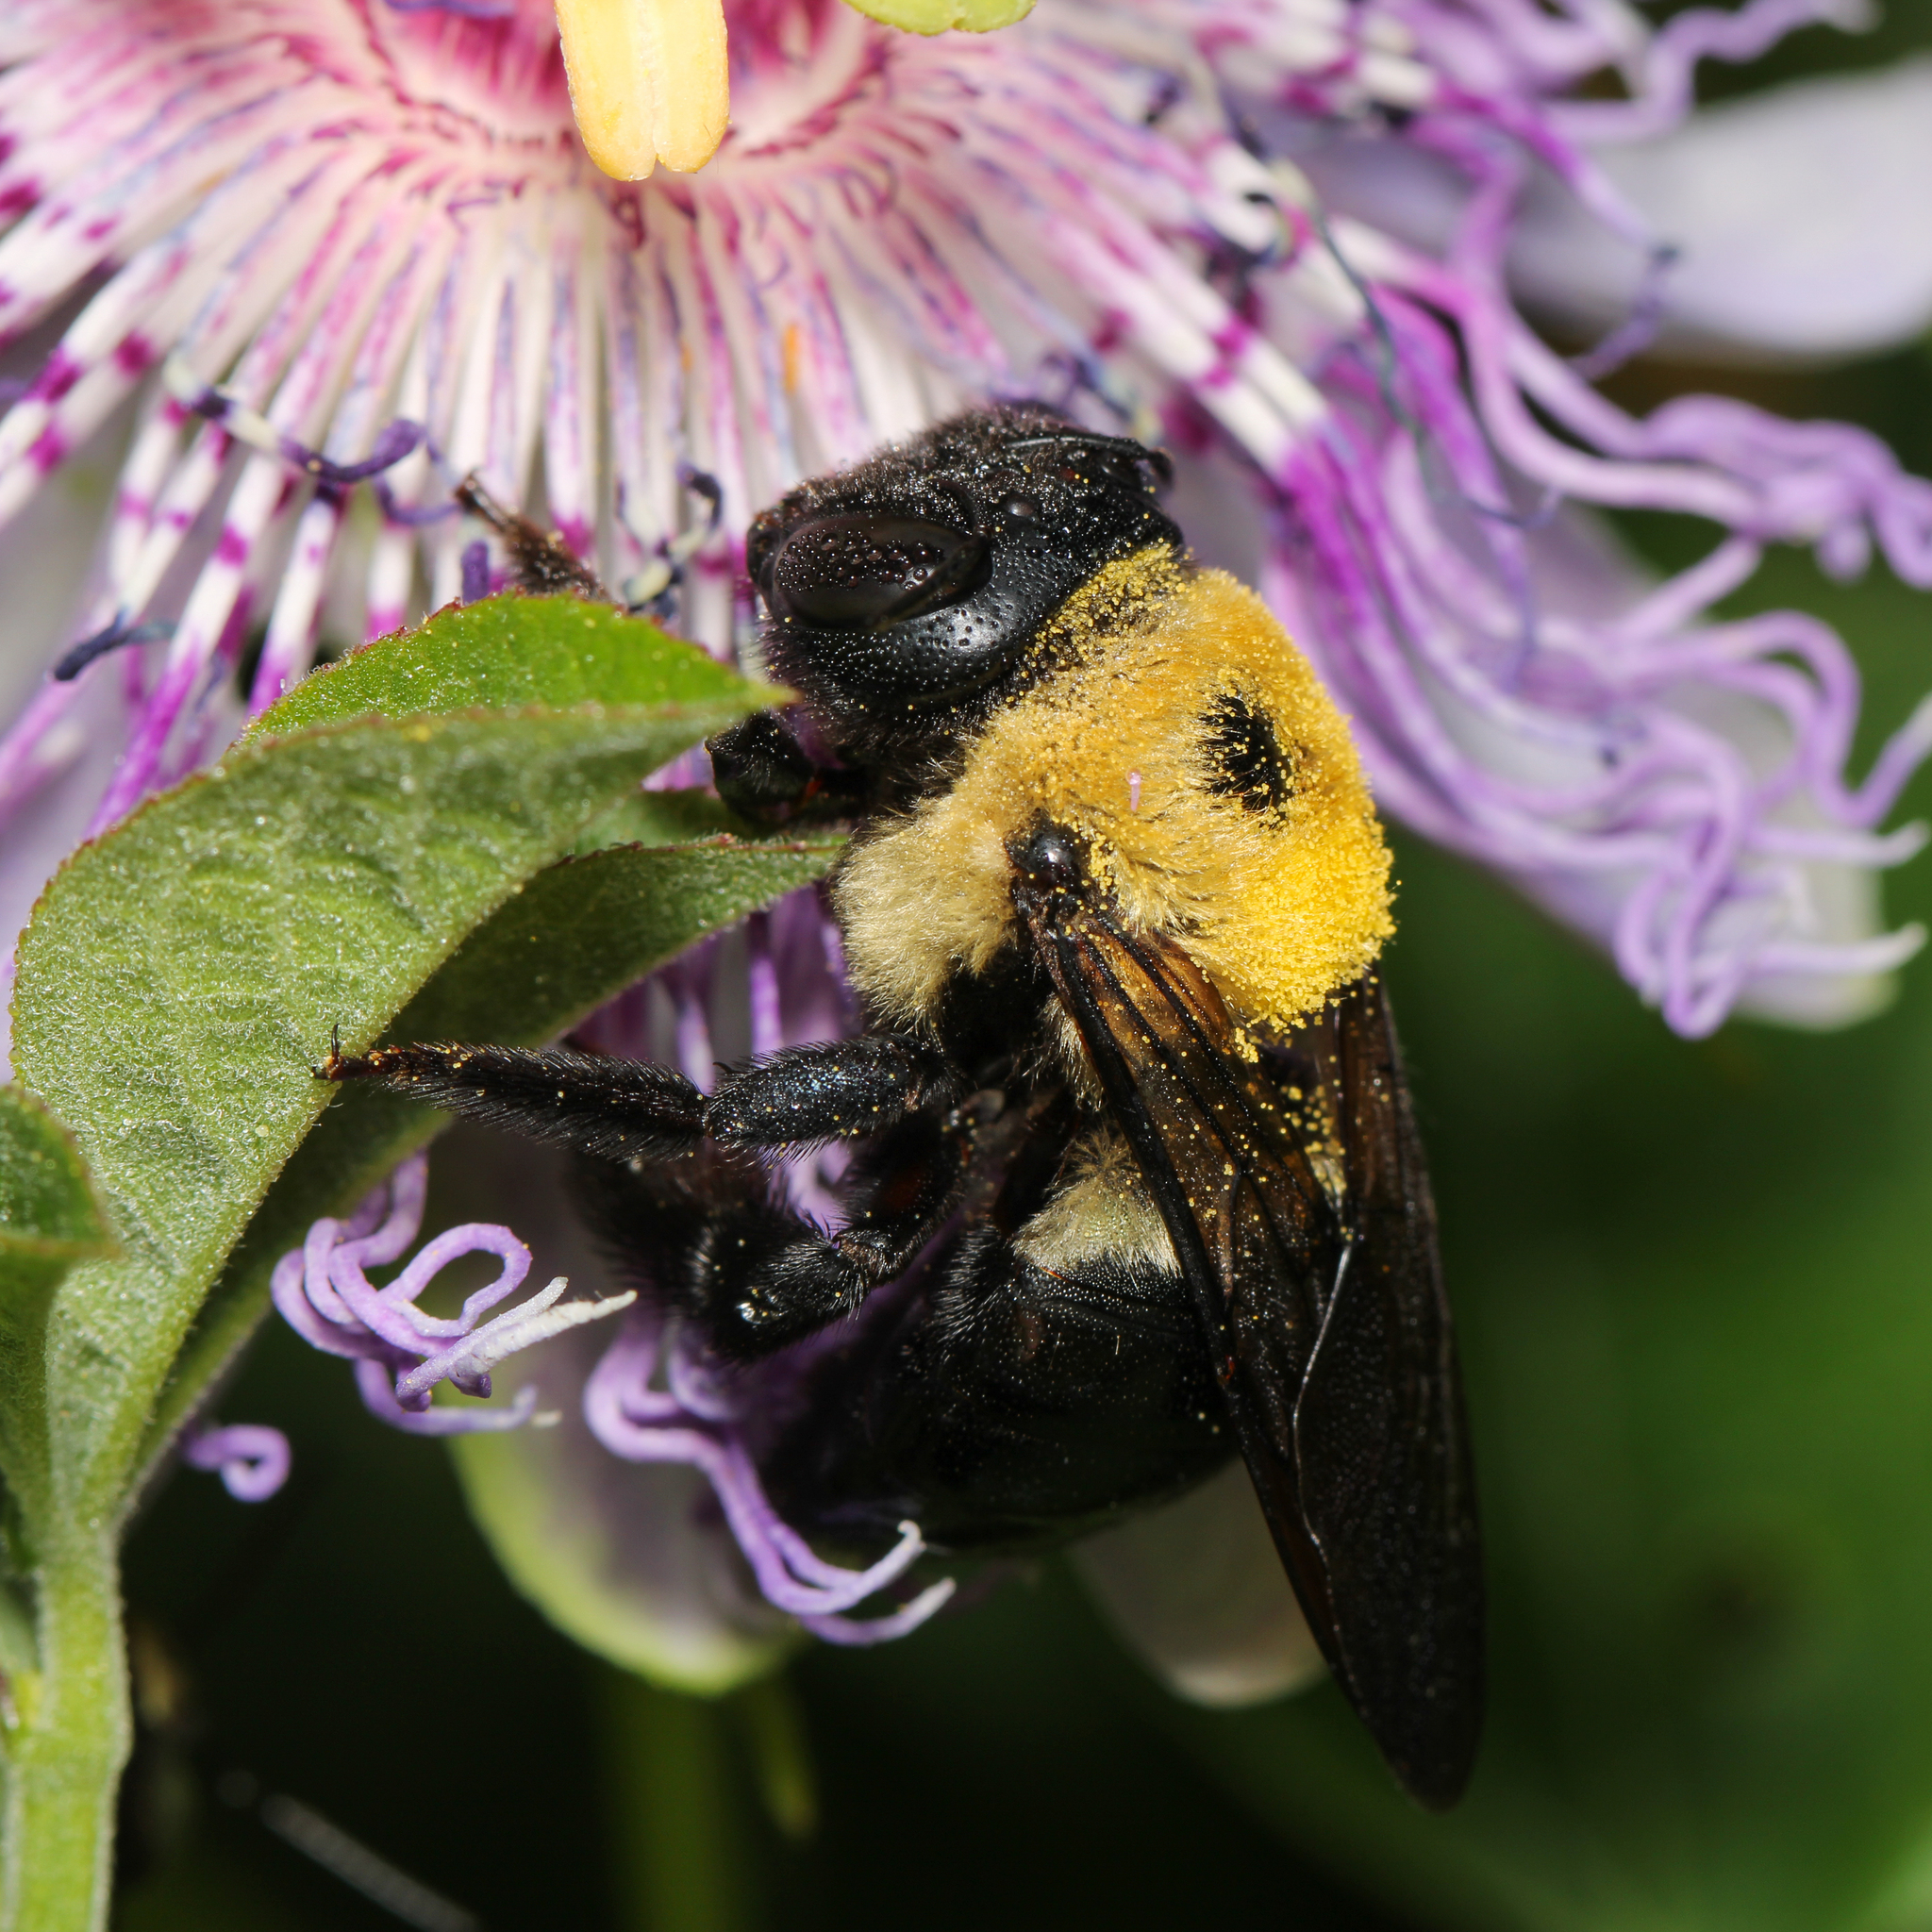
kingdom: Animalia
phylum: Arthropoda
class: Insecta
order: Hymenoptera
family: Apidae
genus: Xylocopa
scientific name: Xylocopa virginica
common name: Carpenter bee
